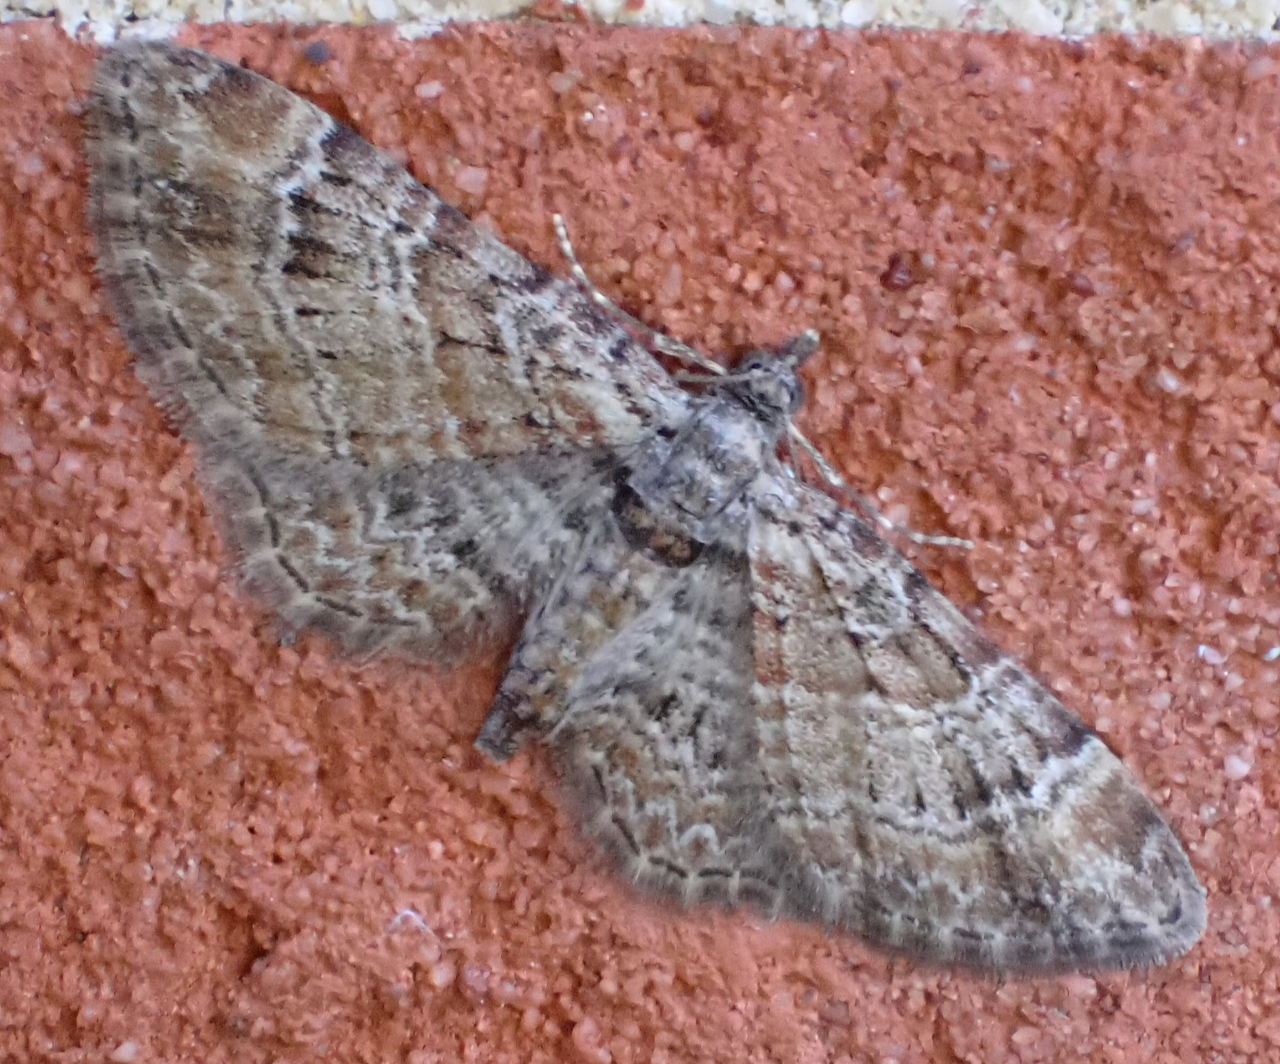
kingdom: Animalia
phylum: Arthropoda
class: Insecta
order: Lepidoptera
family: Geometridae
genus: Gymnoscelis
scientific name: Gymnoscelis rufifasciata
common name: Double-striped pug
